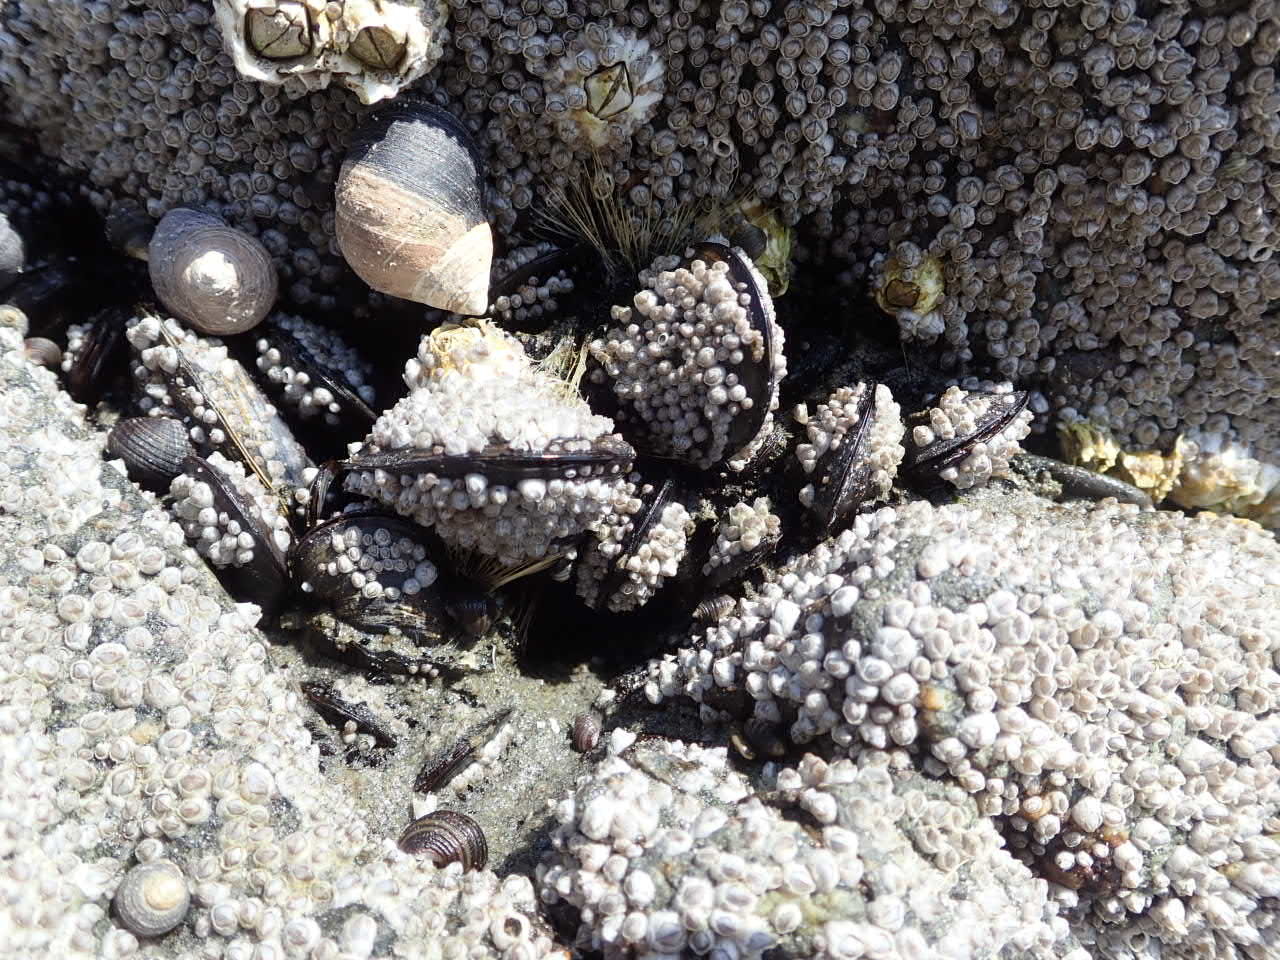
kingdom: Animalia
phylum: Mollusca
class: Bivalvia
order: Mytilida
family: Mytilidae
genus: Mytilus
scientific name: Mytilus edulis
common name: Blue mussel
